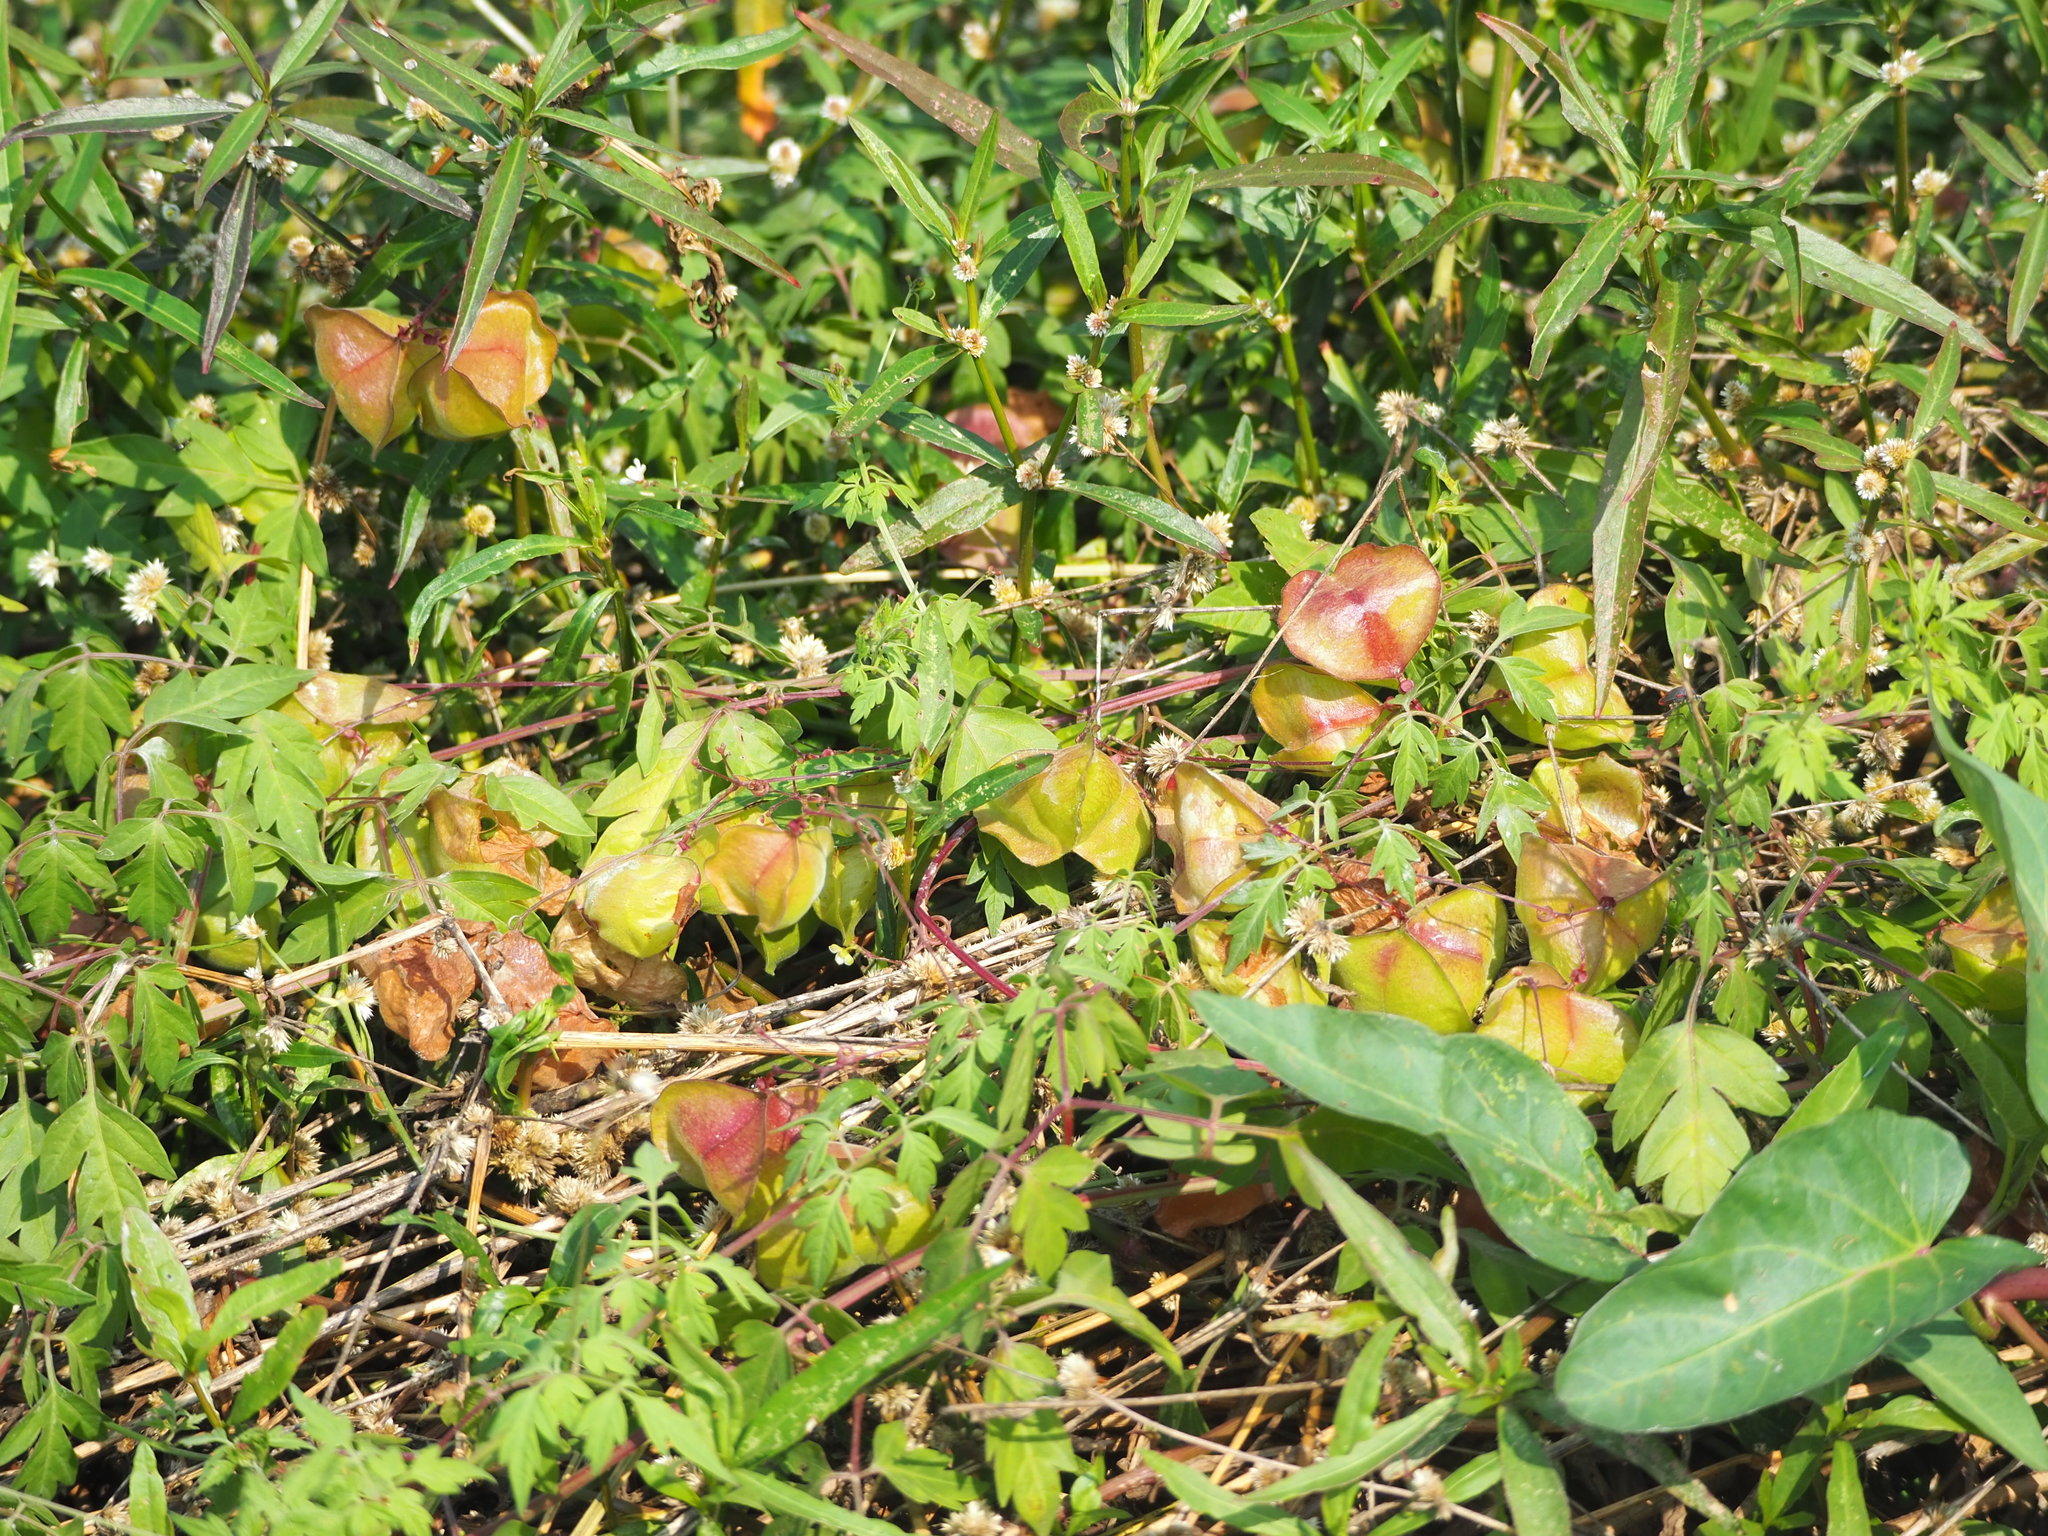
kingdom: Plantae
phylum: Tracheophyta
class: Magnoliopsida
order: Sapindales
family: Sapindaceae
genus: Cardiospermum
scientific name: Cardiospermum halicacabum
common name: Balloon vine
